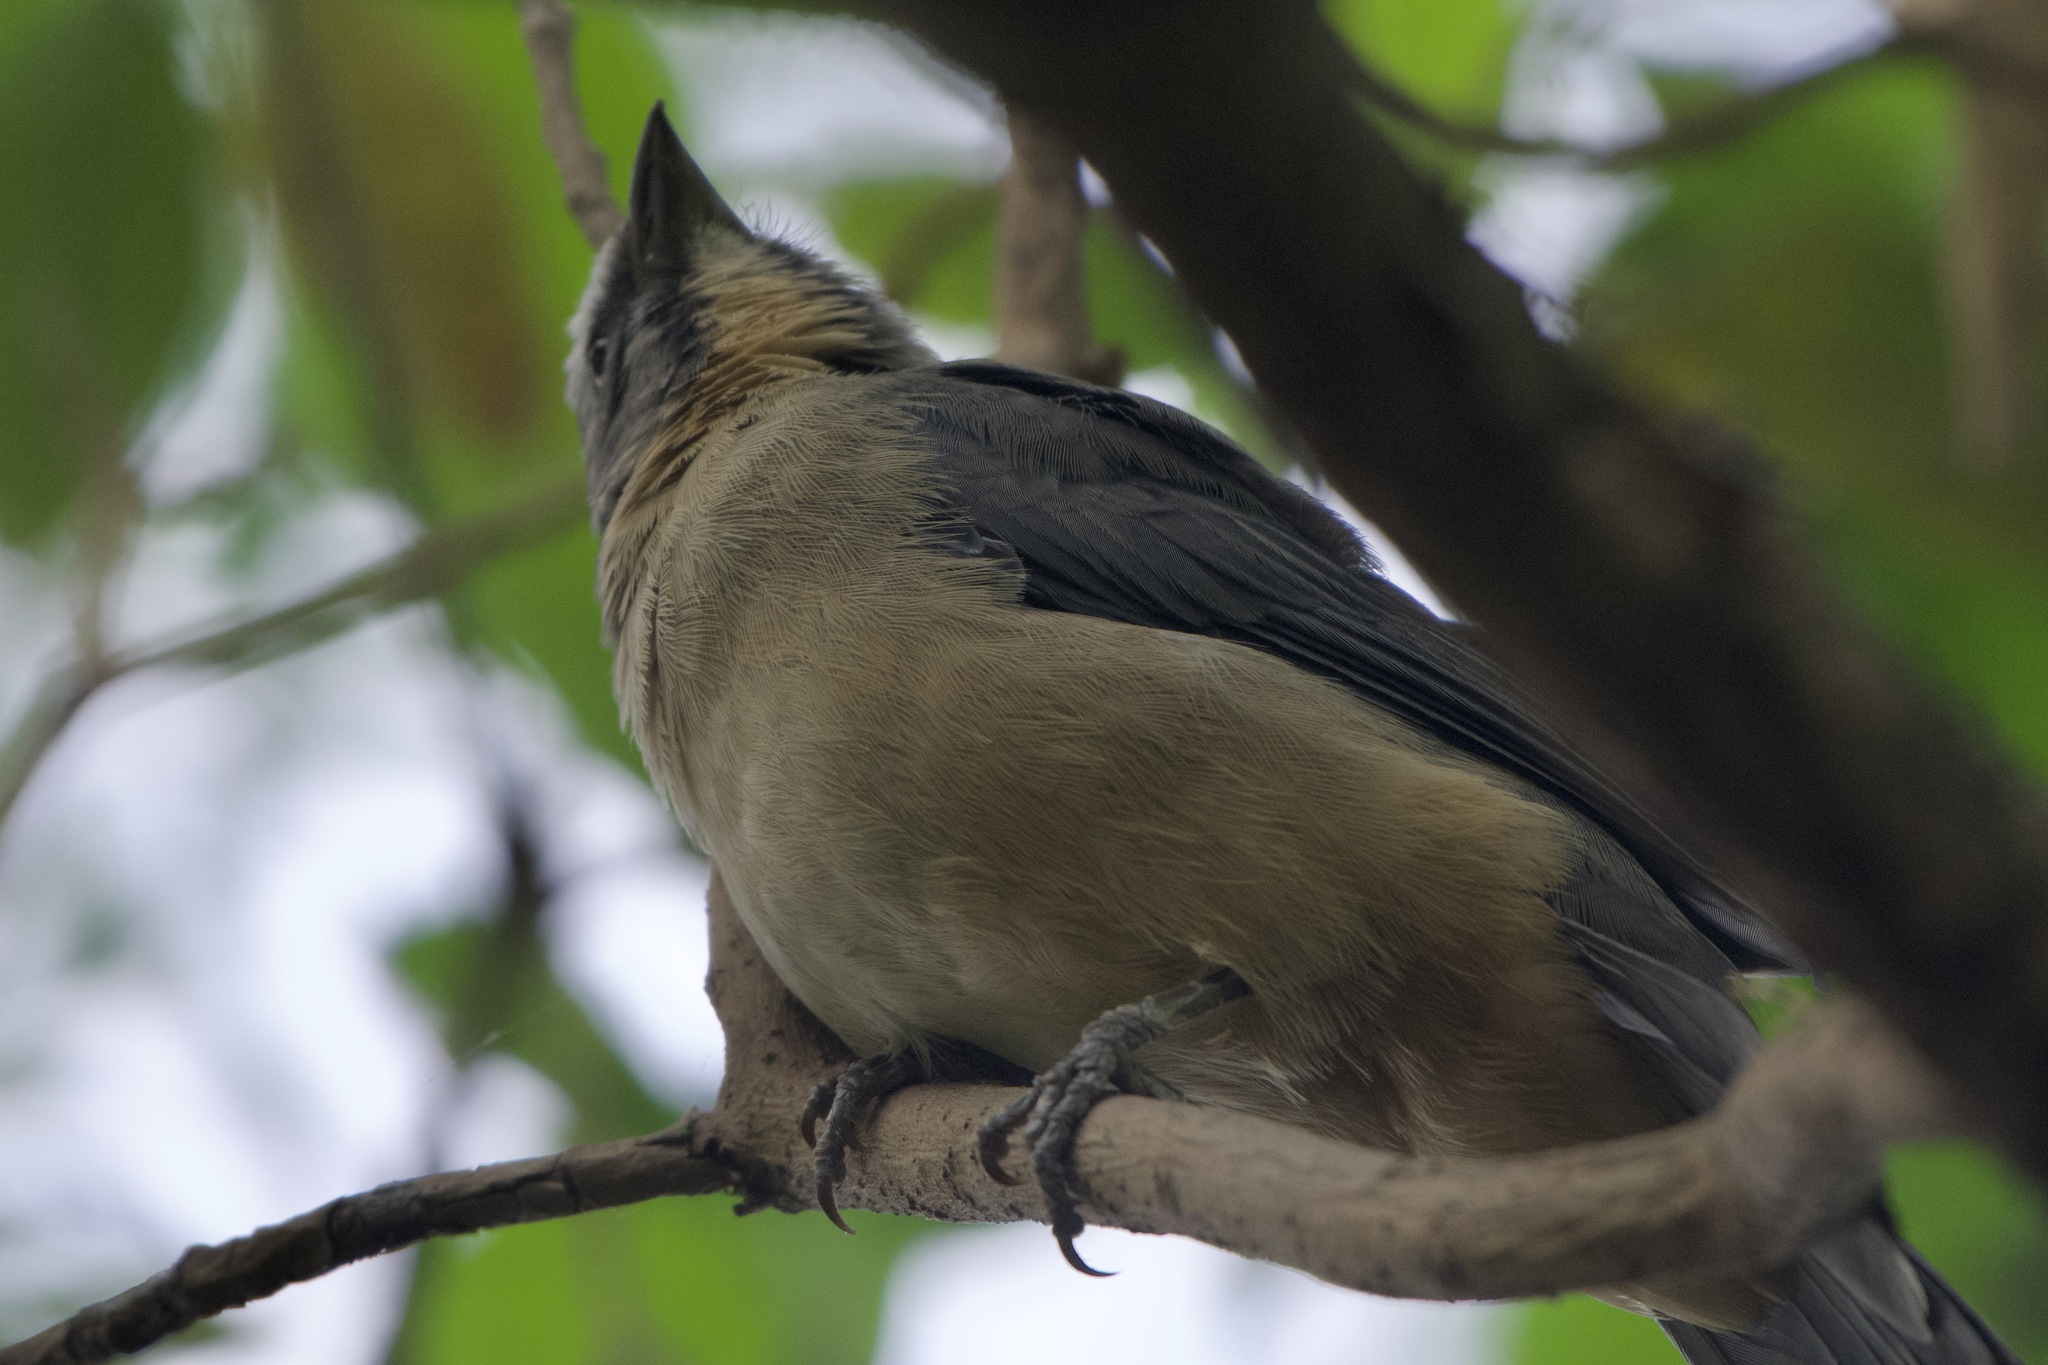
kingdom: Animalia
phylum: Chordata
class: Aves
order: Passeriformes
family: Thraupidae
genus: Saltator
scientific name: Saltator coerulescens
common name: Grayish saltator
